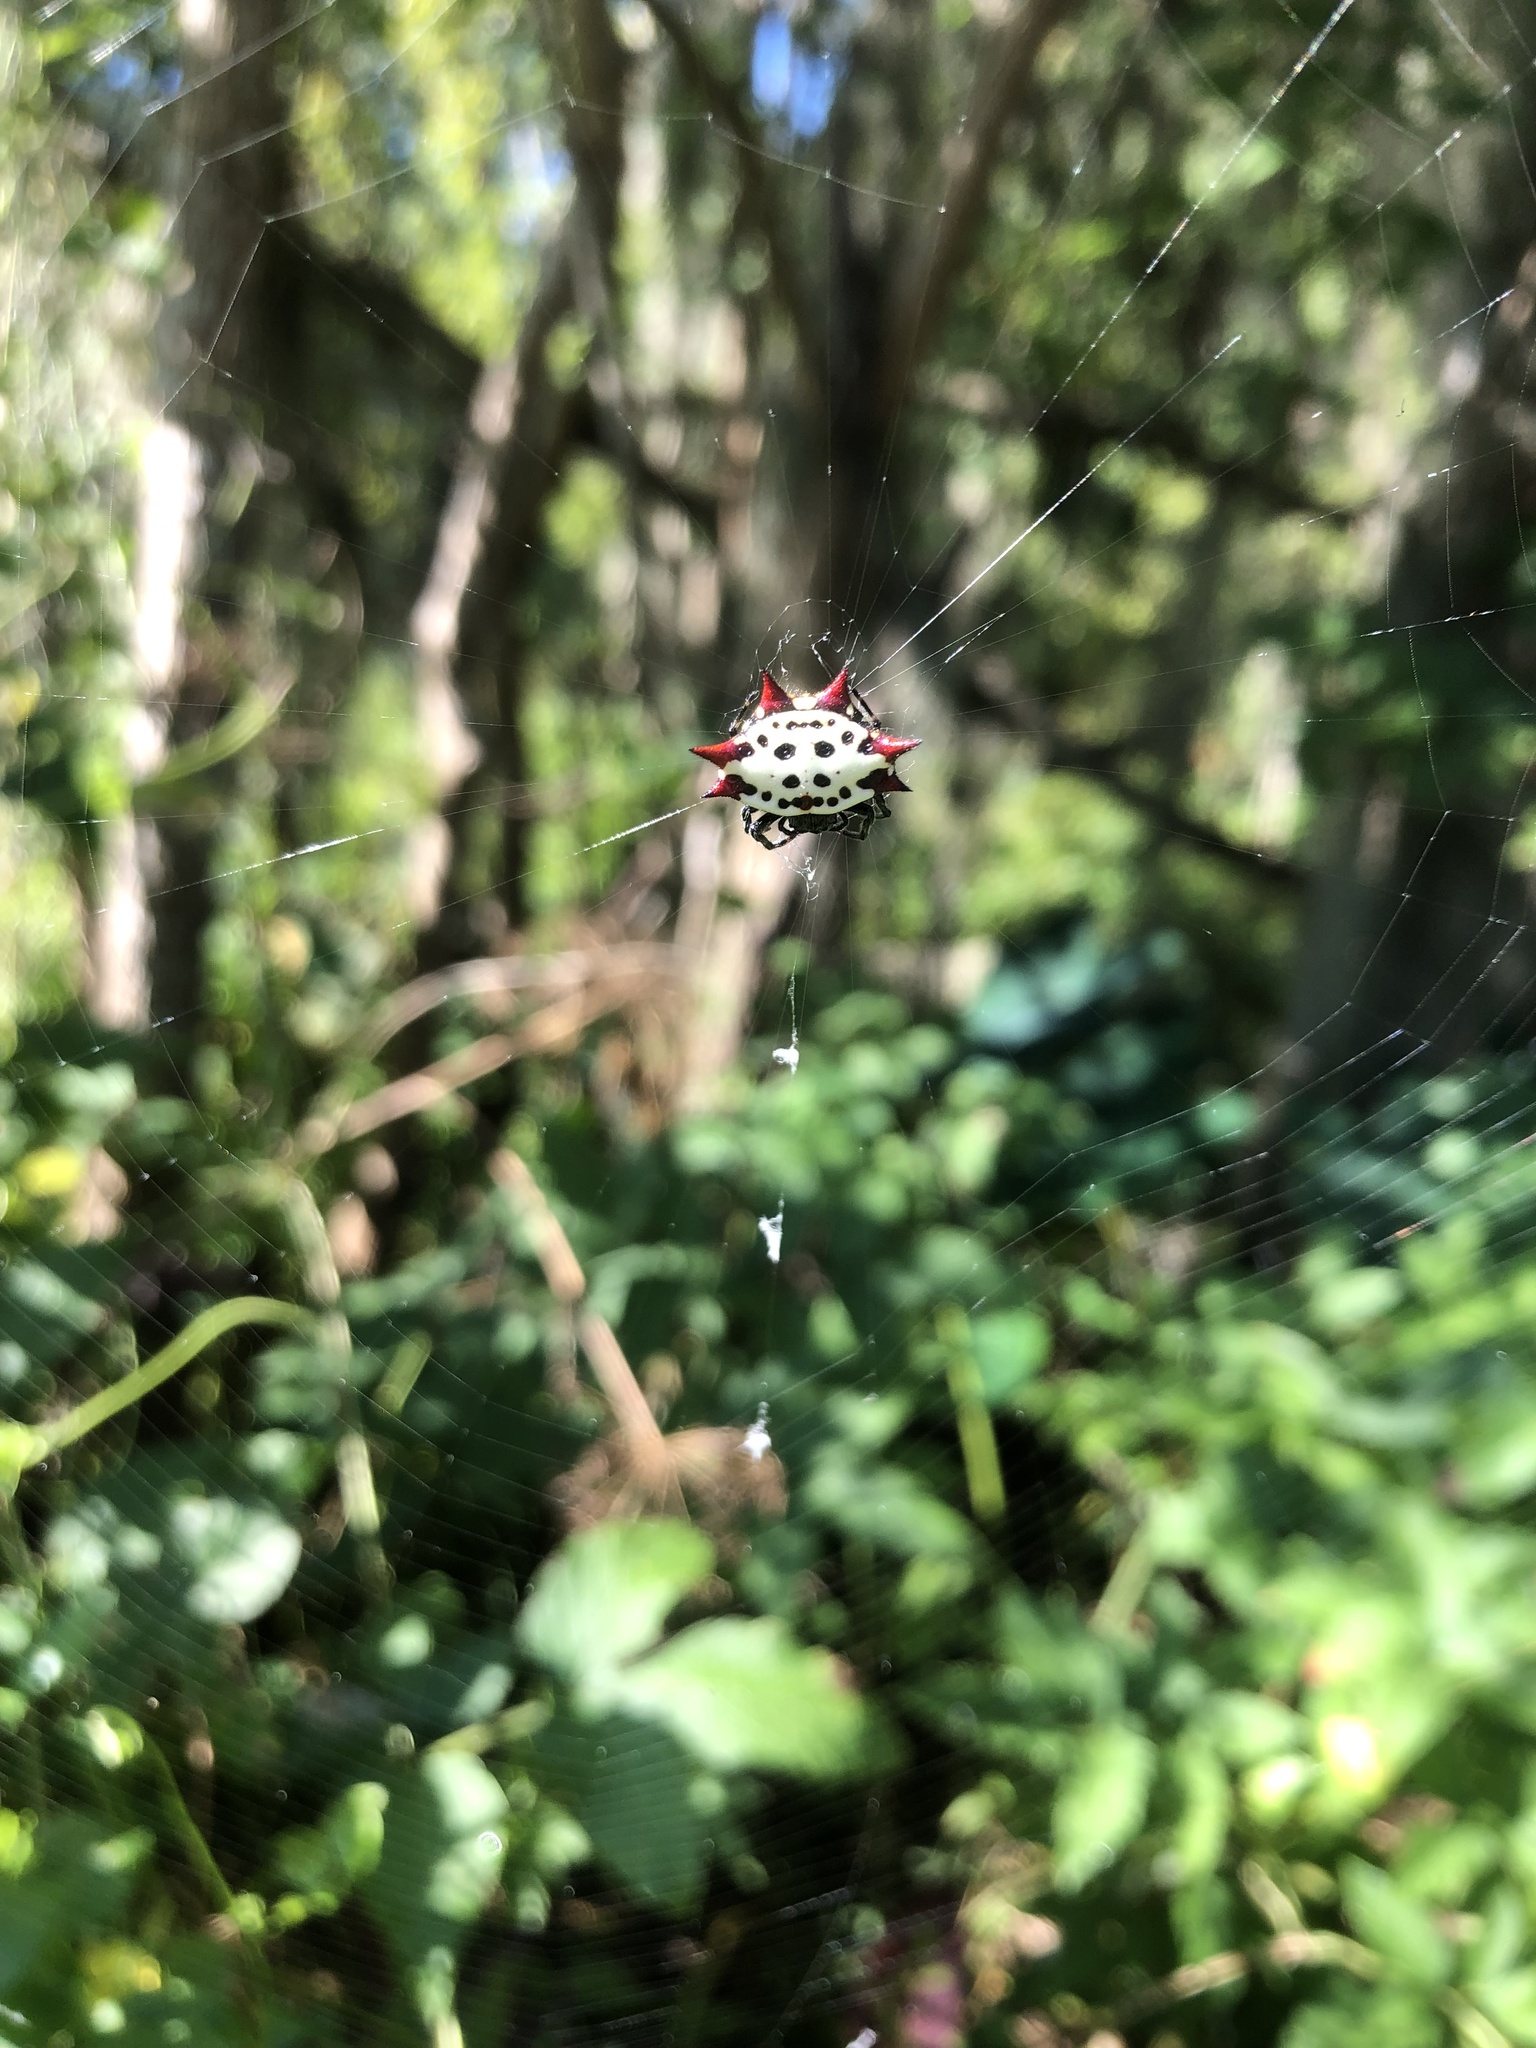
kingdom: Animalia
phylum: Arthropoda
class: Arachnida
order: Araneae
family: Araneidae
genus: Gasteracantha
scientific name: Gasteracantha cancriformis
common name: Orb weavers
